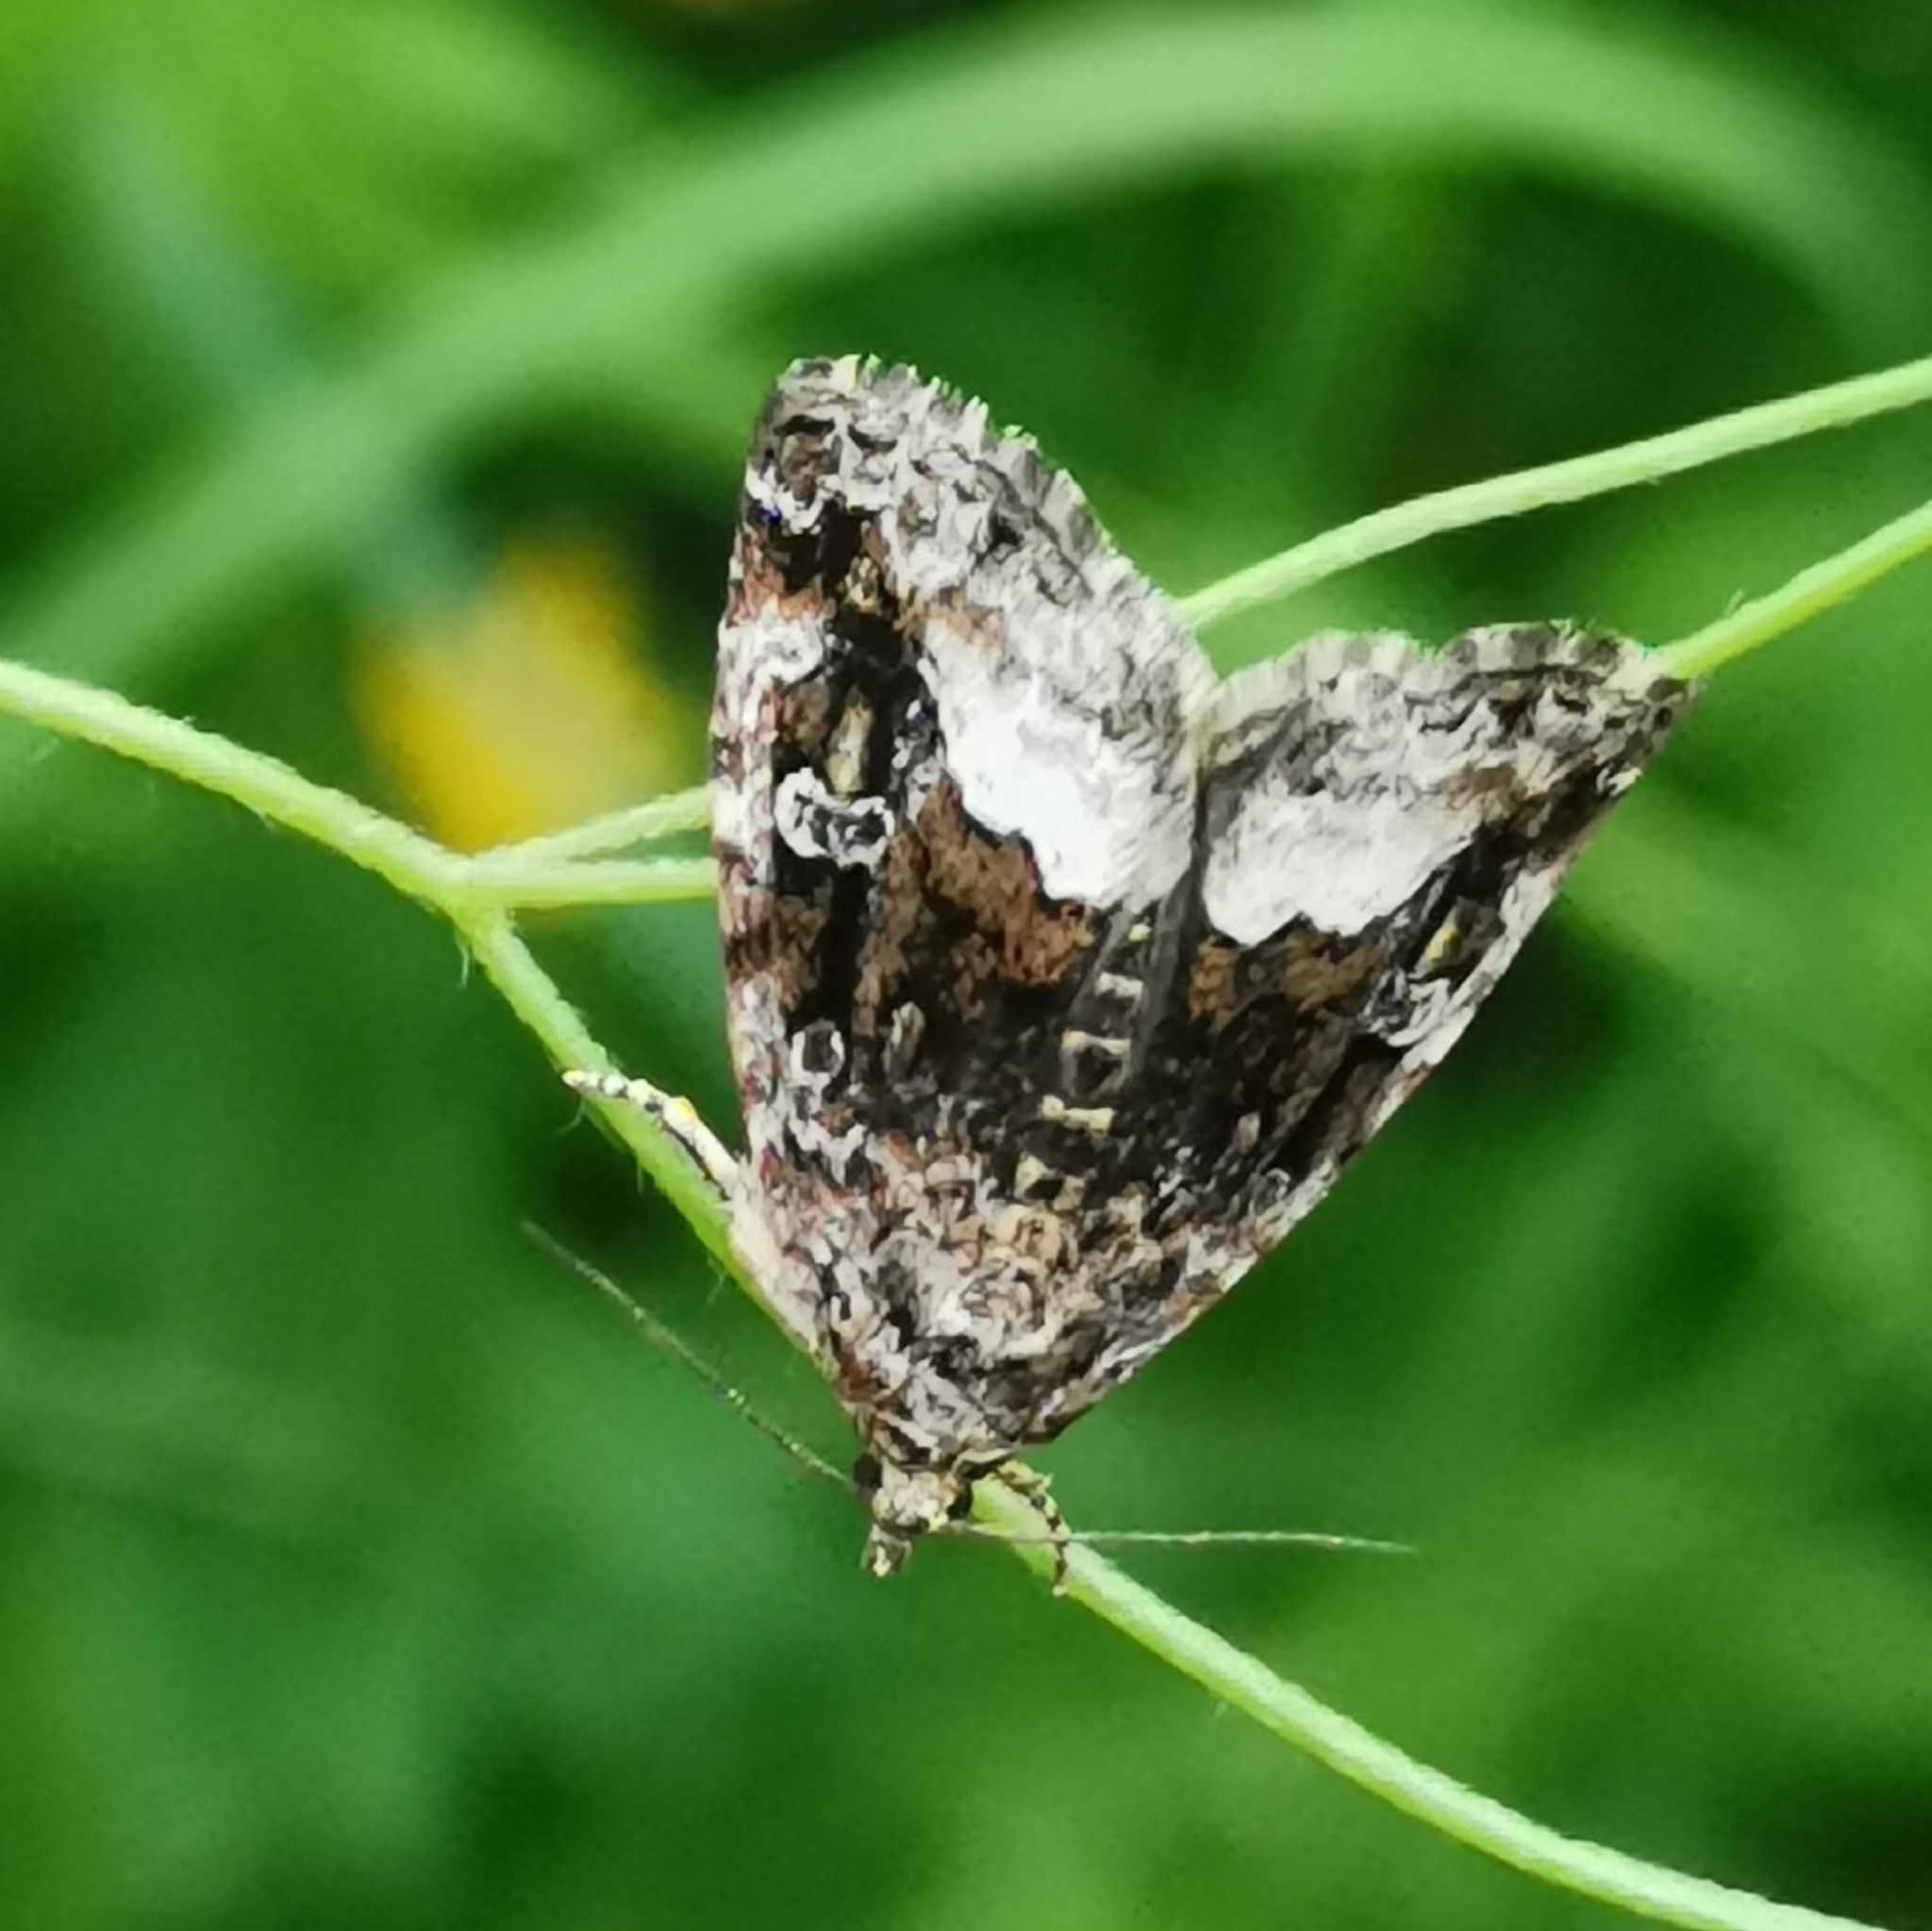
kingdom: Animalia
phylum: Arthropoda
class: Insecta
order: Lepidoptera
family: Noctuidae
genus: Deltote
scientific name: Deltote pygarga
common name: Marbled white spot
